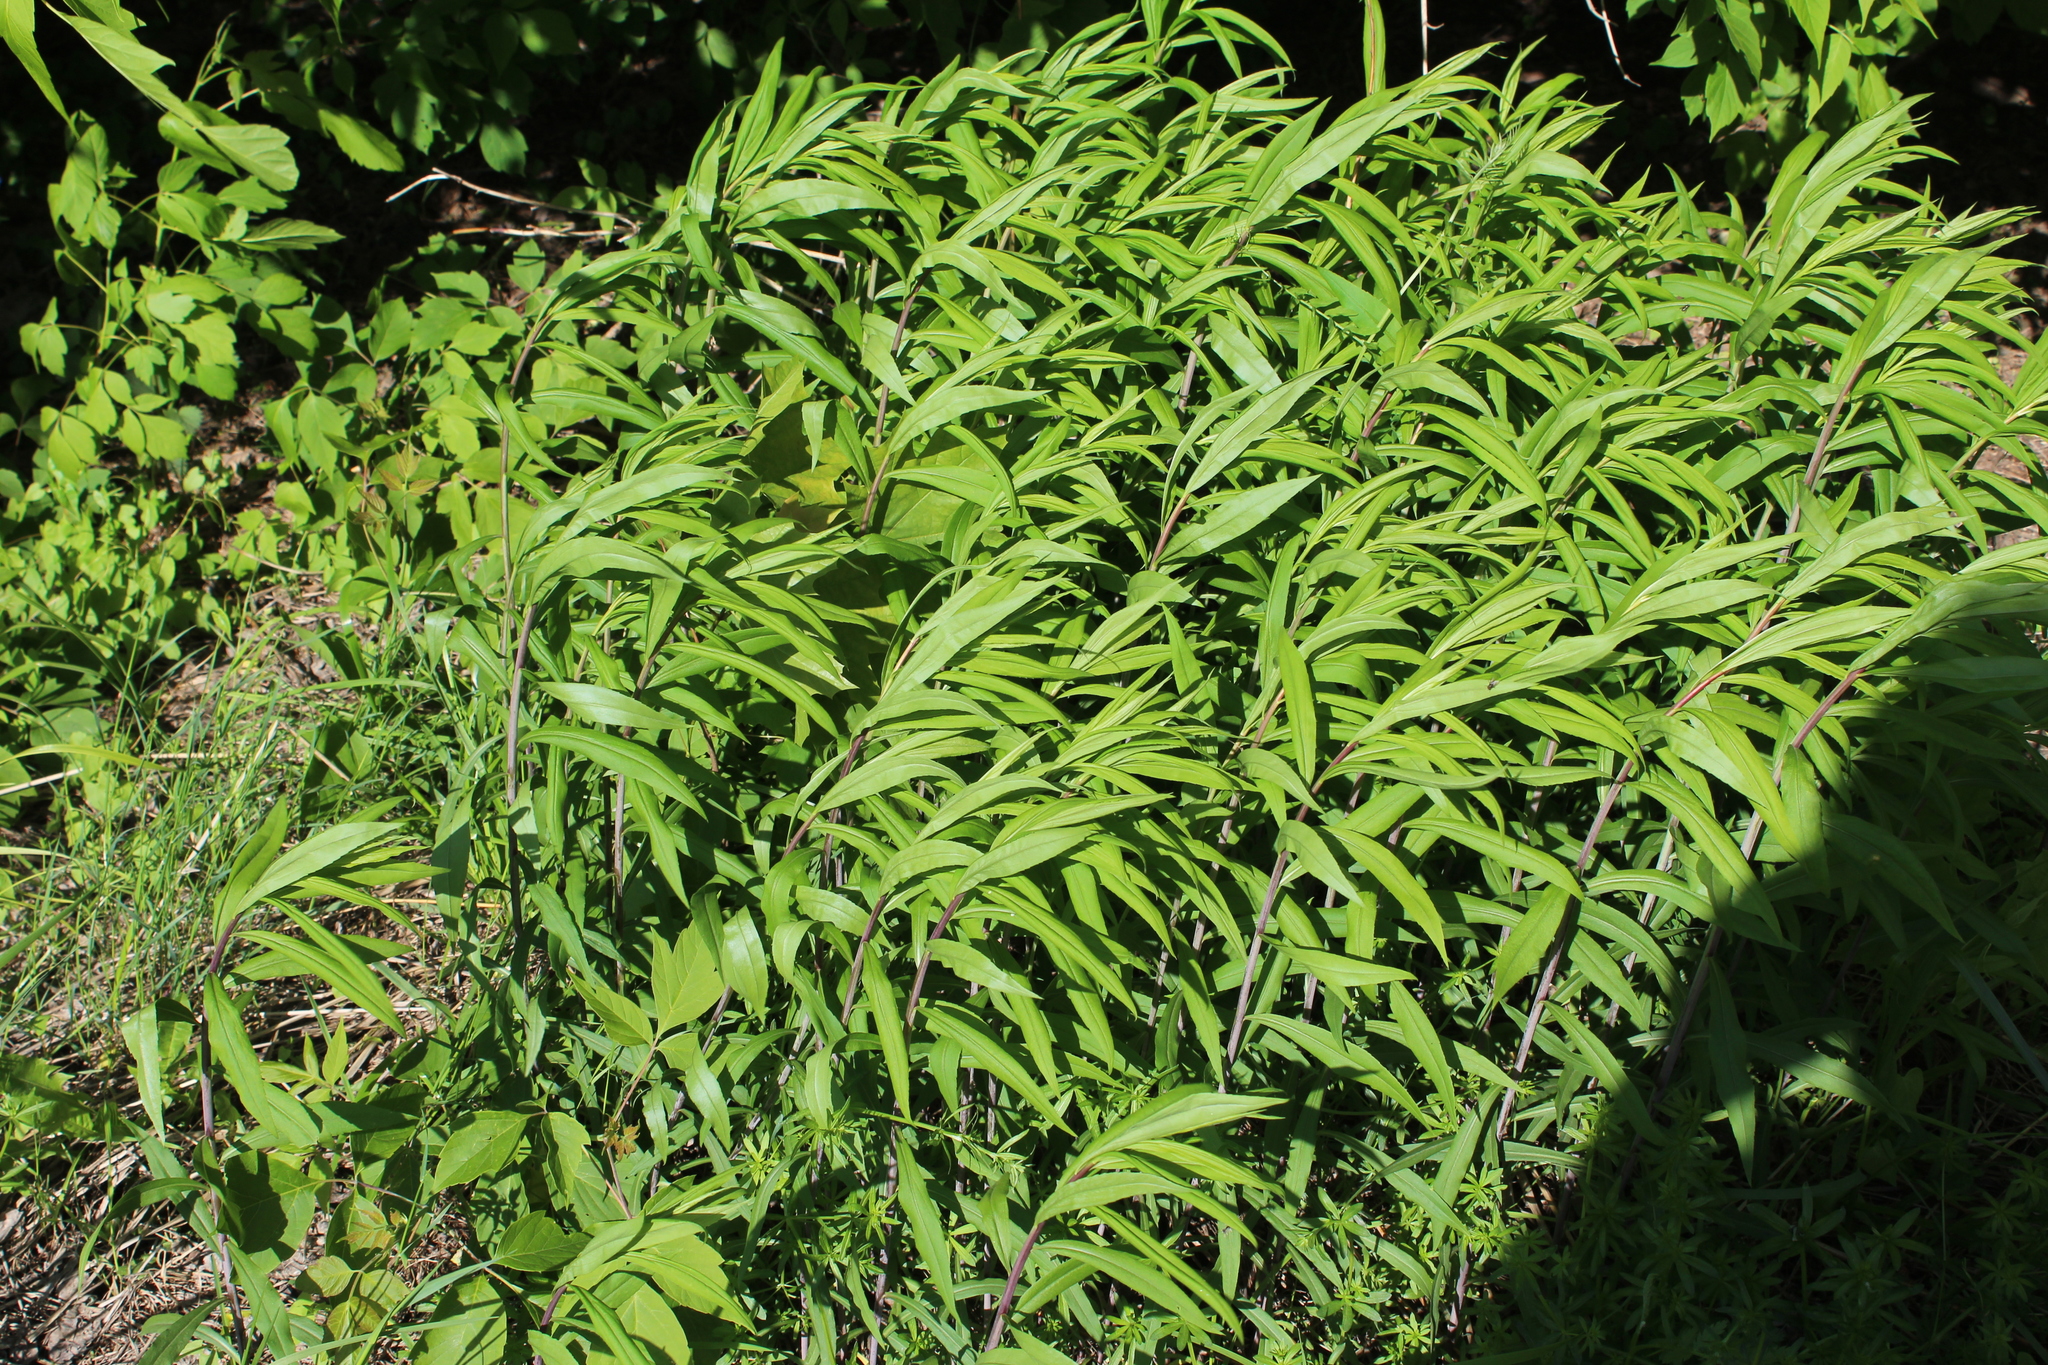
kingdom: Plantae
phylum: Tracheophyta
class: Magnoliopsida
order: Asterales
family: Asteraceae
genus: Solidago
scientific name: Solidago gigantea
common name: Giant goldenrod
